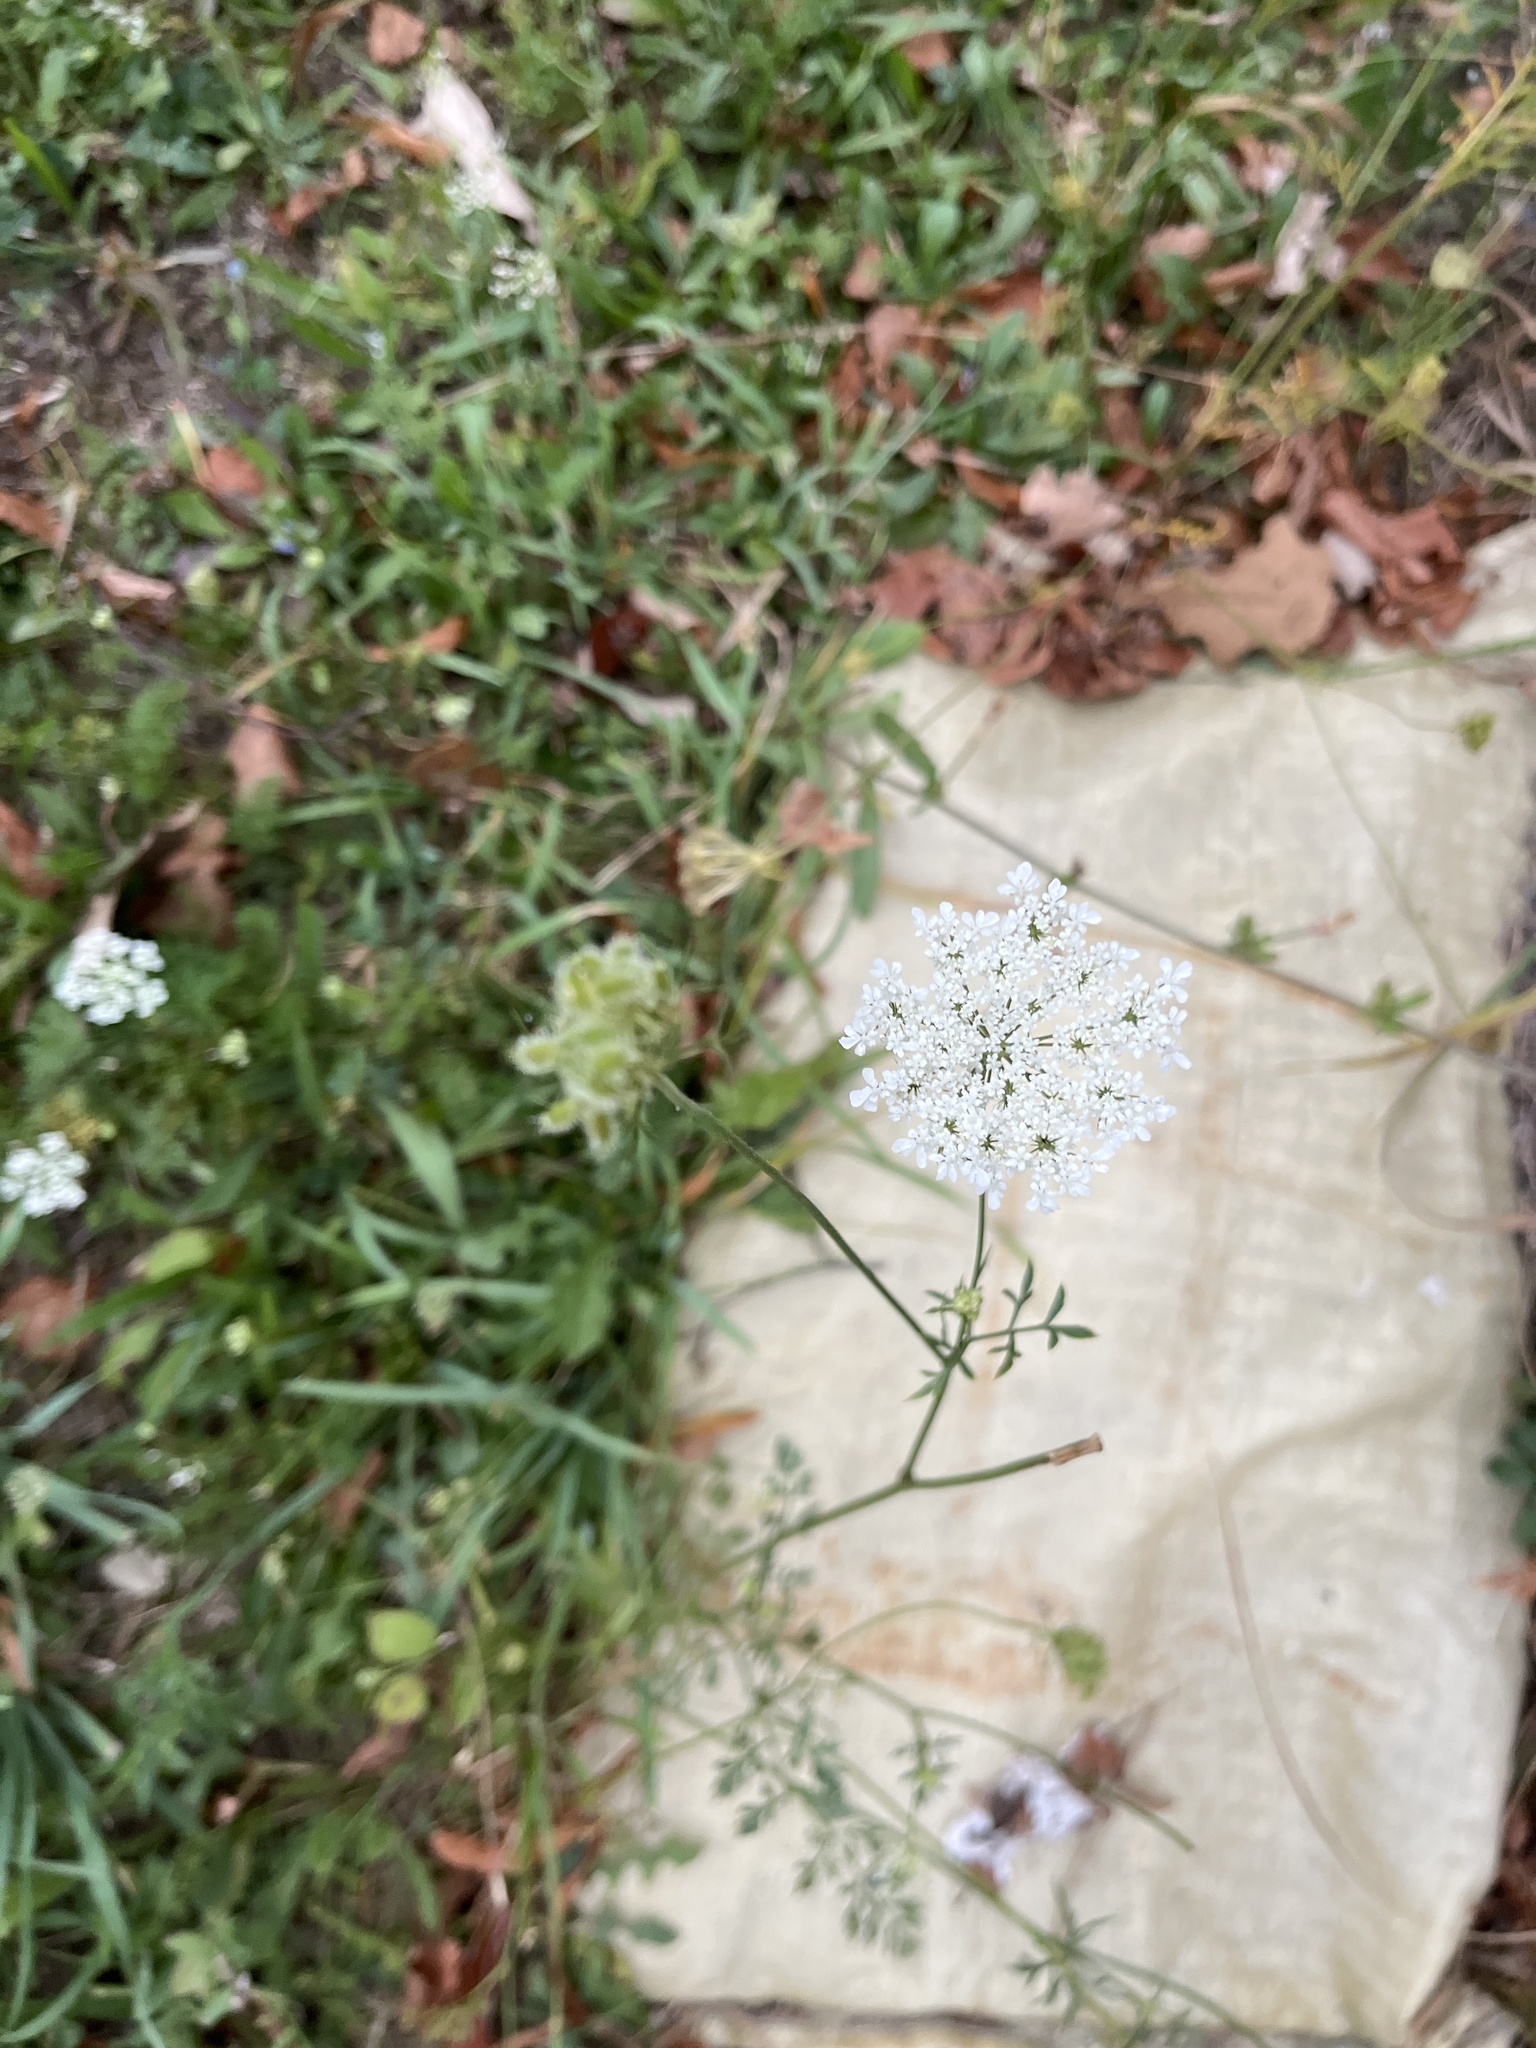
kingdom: Plantae
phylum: Tracheophyta
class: Magnoliopsida
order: Apiales
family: Apiaceae
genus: Daucus
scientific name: Daucus carota
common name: Wild carrot
